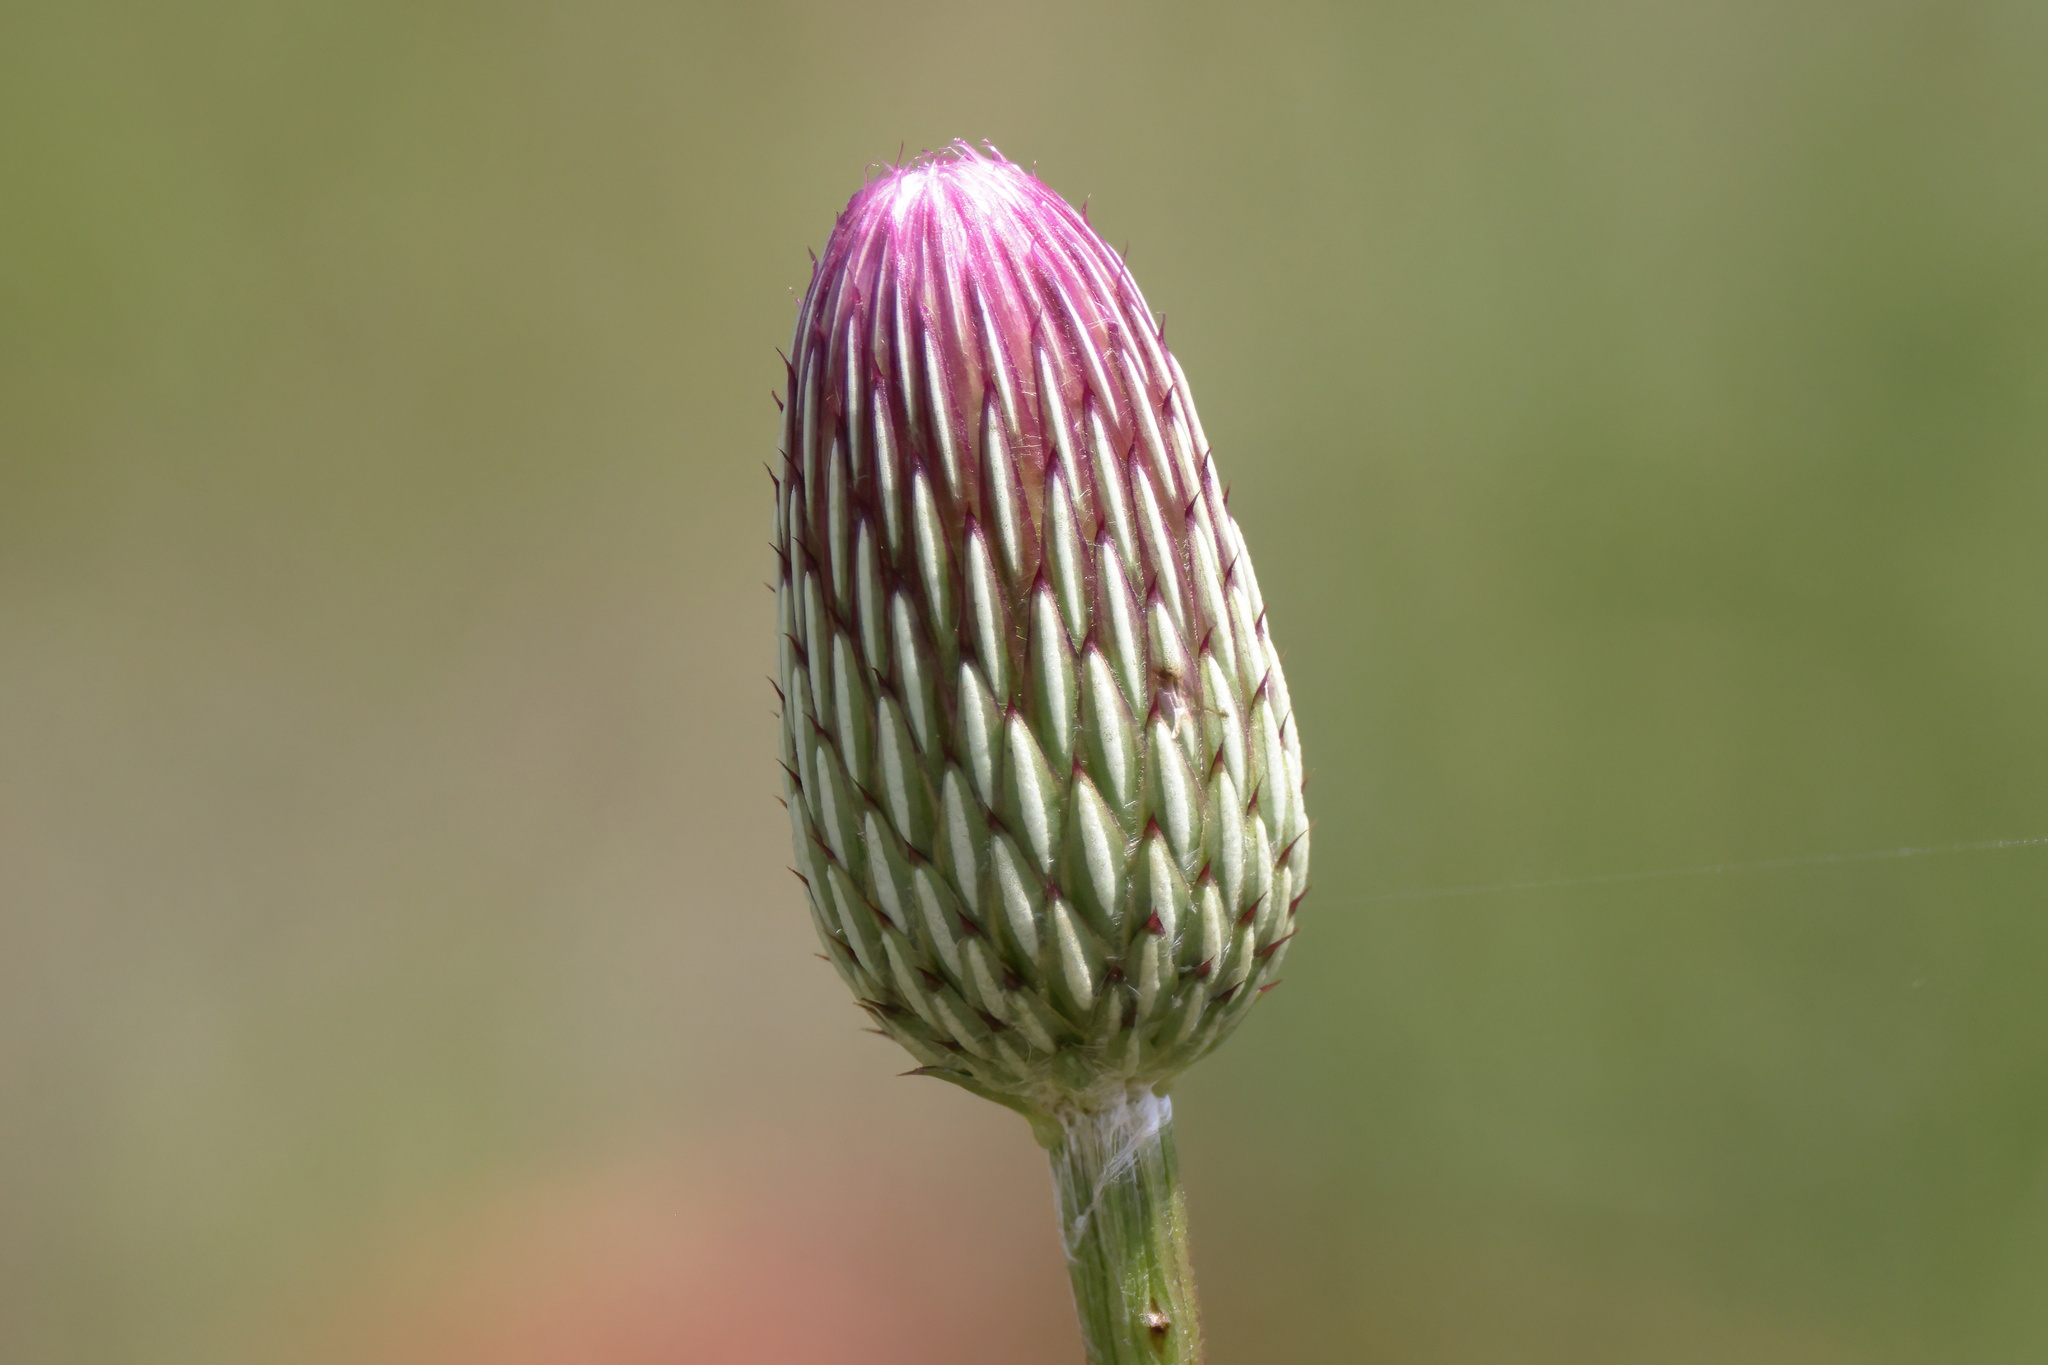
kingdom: Plantae
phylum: Tracheophyta
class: Magnoliopsida
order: Asterales
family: Asteraceae
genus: Cirsium
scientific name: Cirsium lecontei
